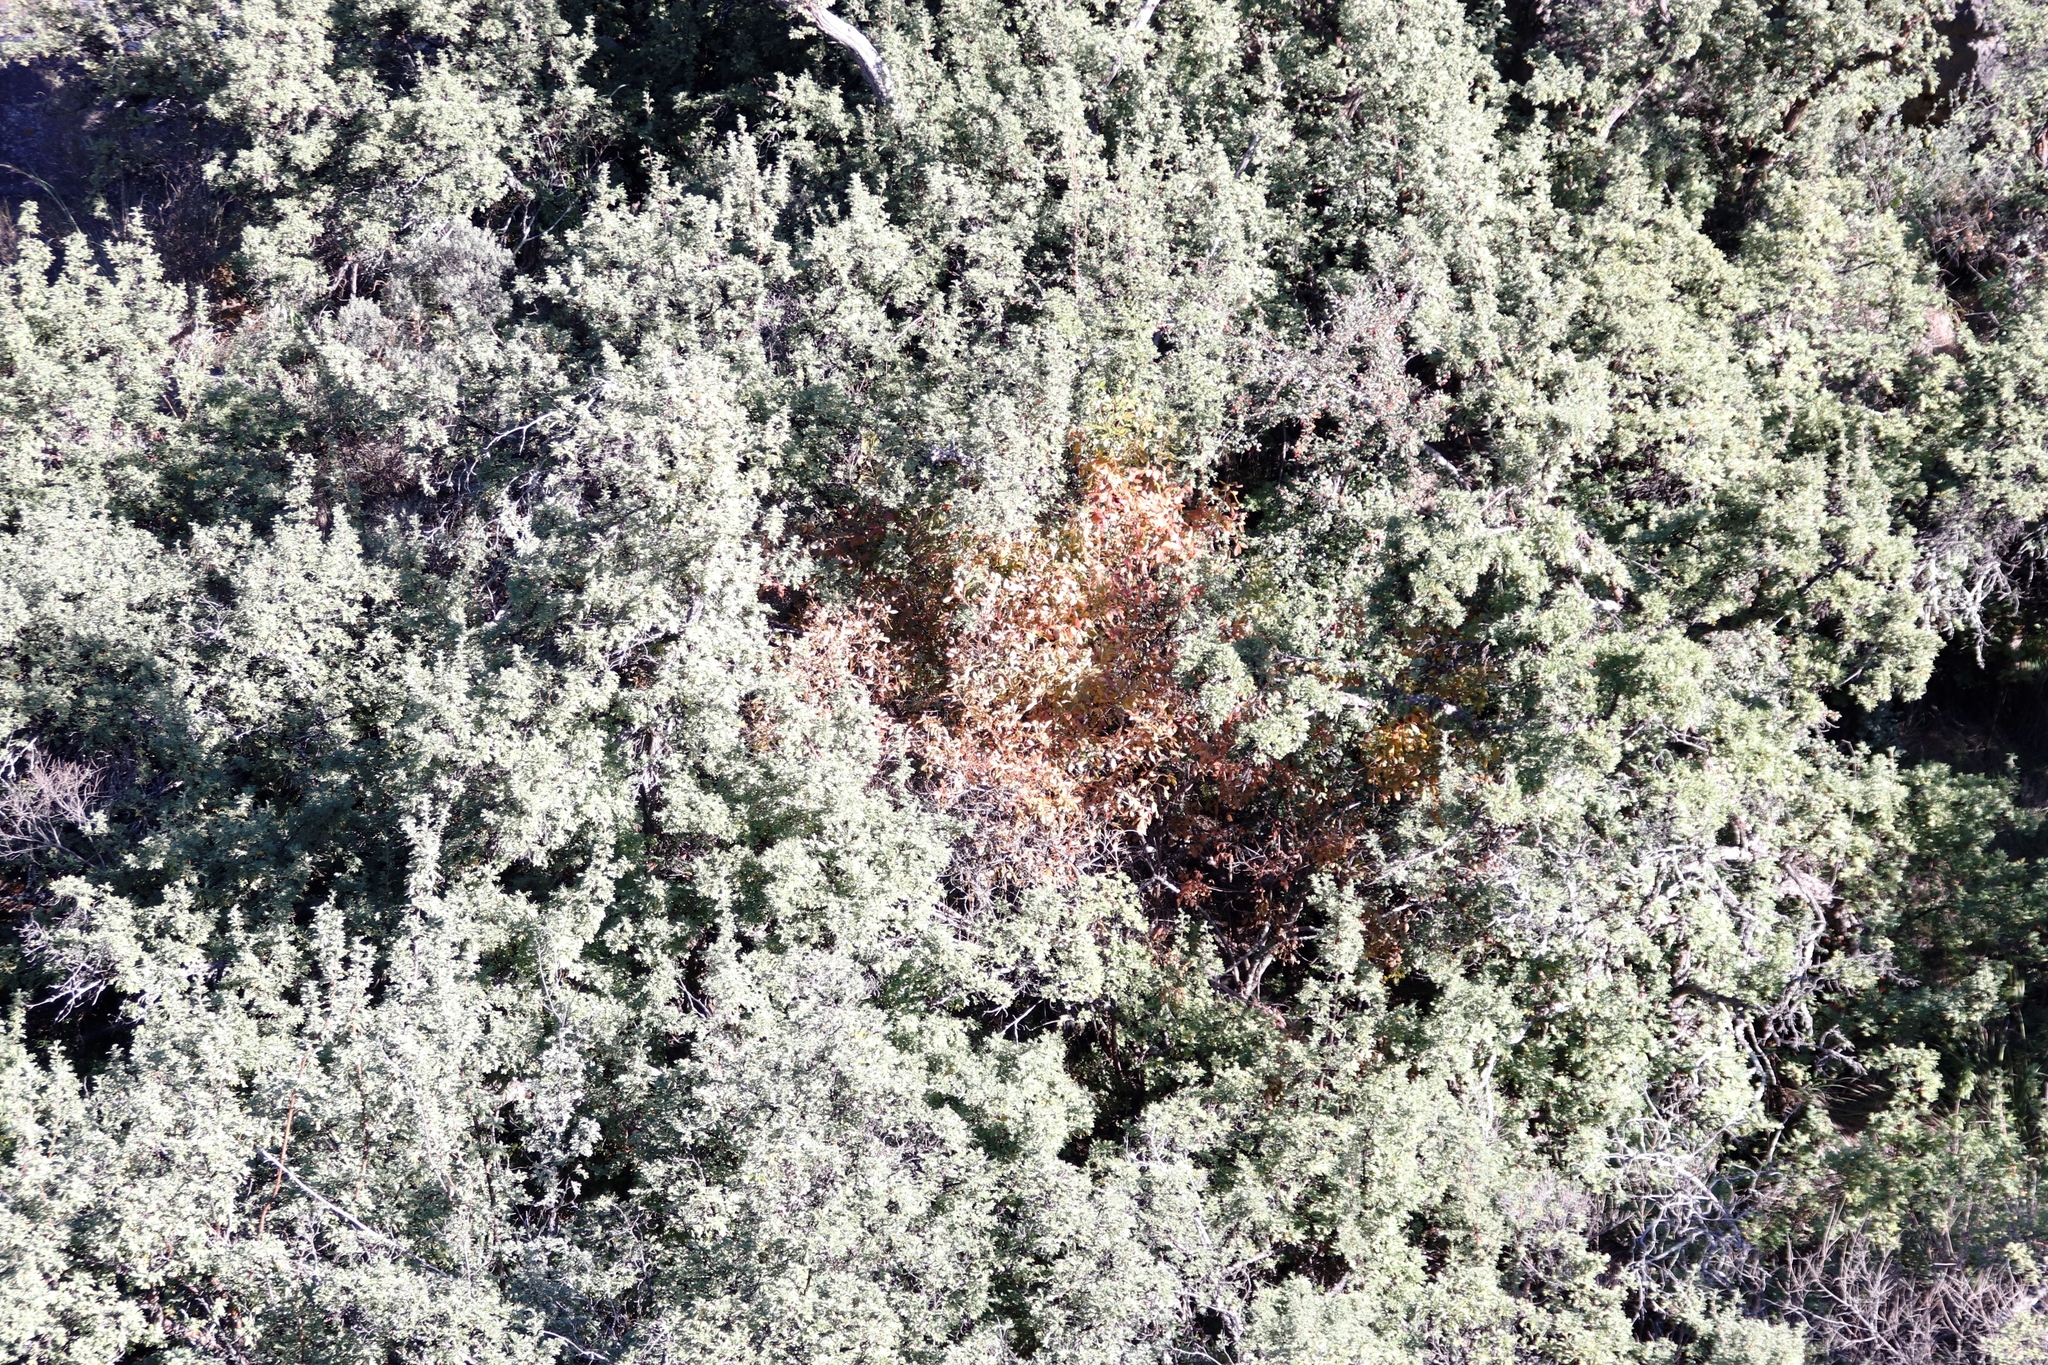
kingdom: Plantae
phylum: Tracheophyta
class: Magnoliopsida
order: Rosales
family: Rosaceae
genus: Leucosidea
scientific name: Leucosidea sericea
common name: Oldwood
